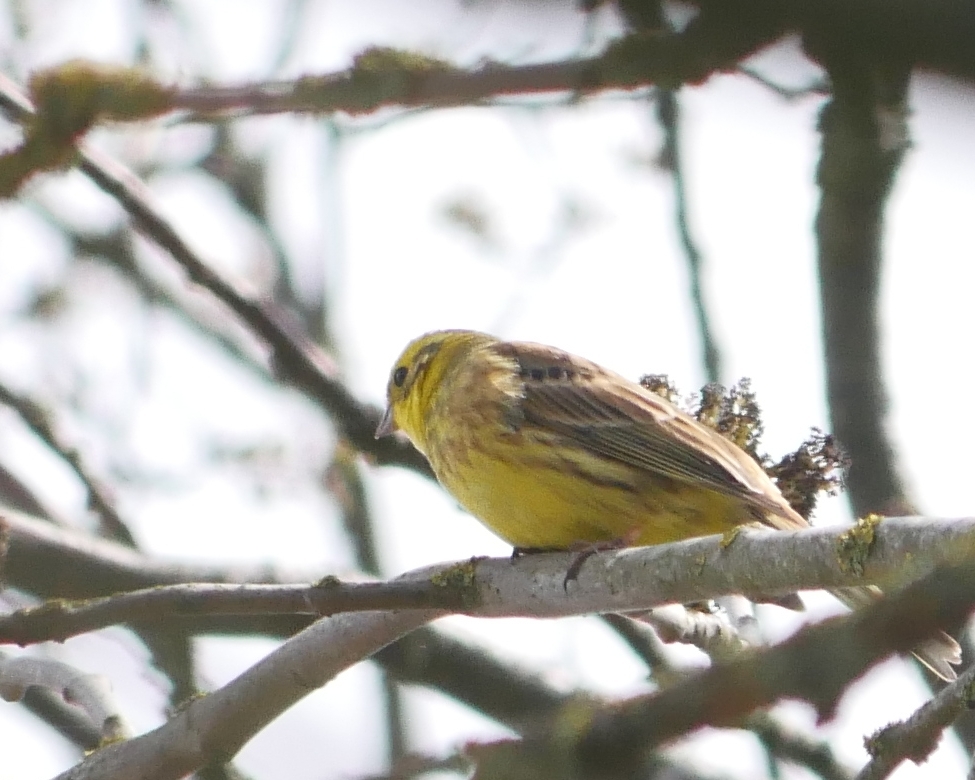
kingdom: Animalia
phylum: Chordata
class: Aves
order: Passeriformes
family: Emberizidae
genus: Emberiza
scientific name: Emberiza citrinella
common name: Yellowhammer
